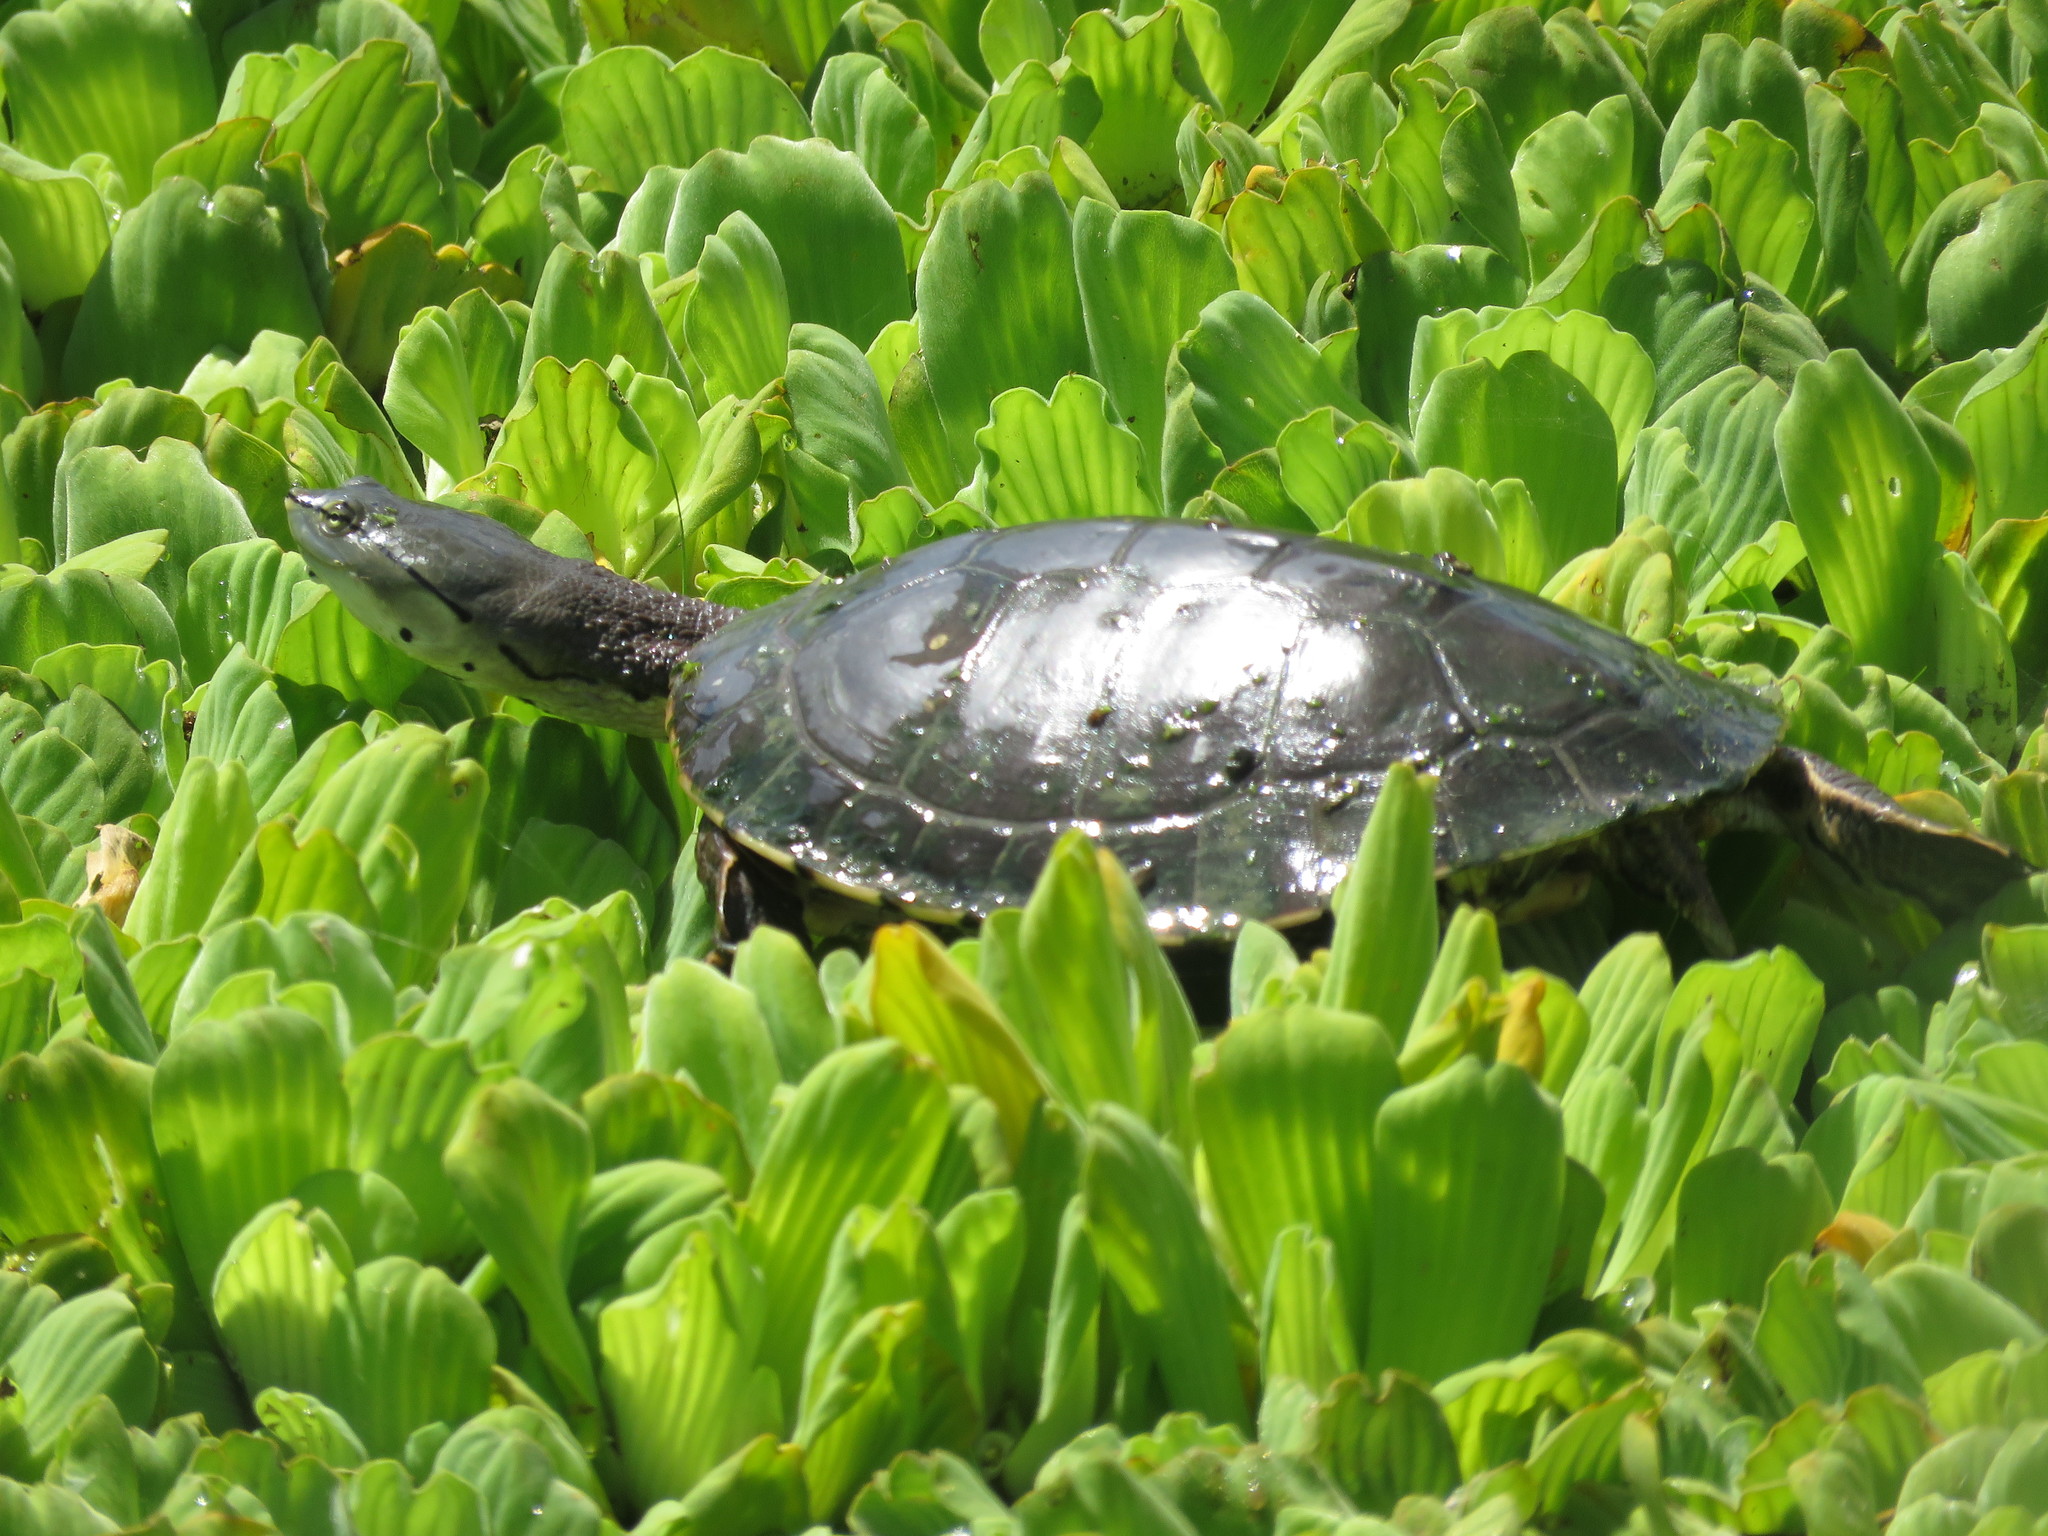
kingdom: Animalia
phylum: Chordata
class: Testudines
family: Chelidae
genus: Phrynops
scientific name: Phrynops hilarii
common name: Side-necked turtle of saint hillaire
